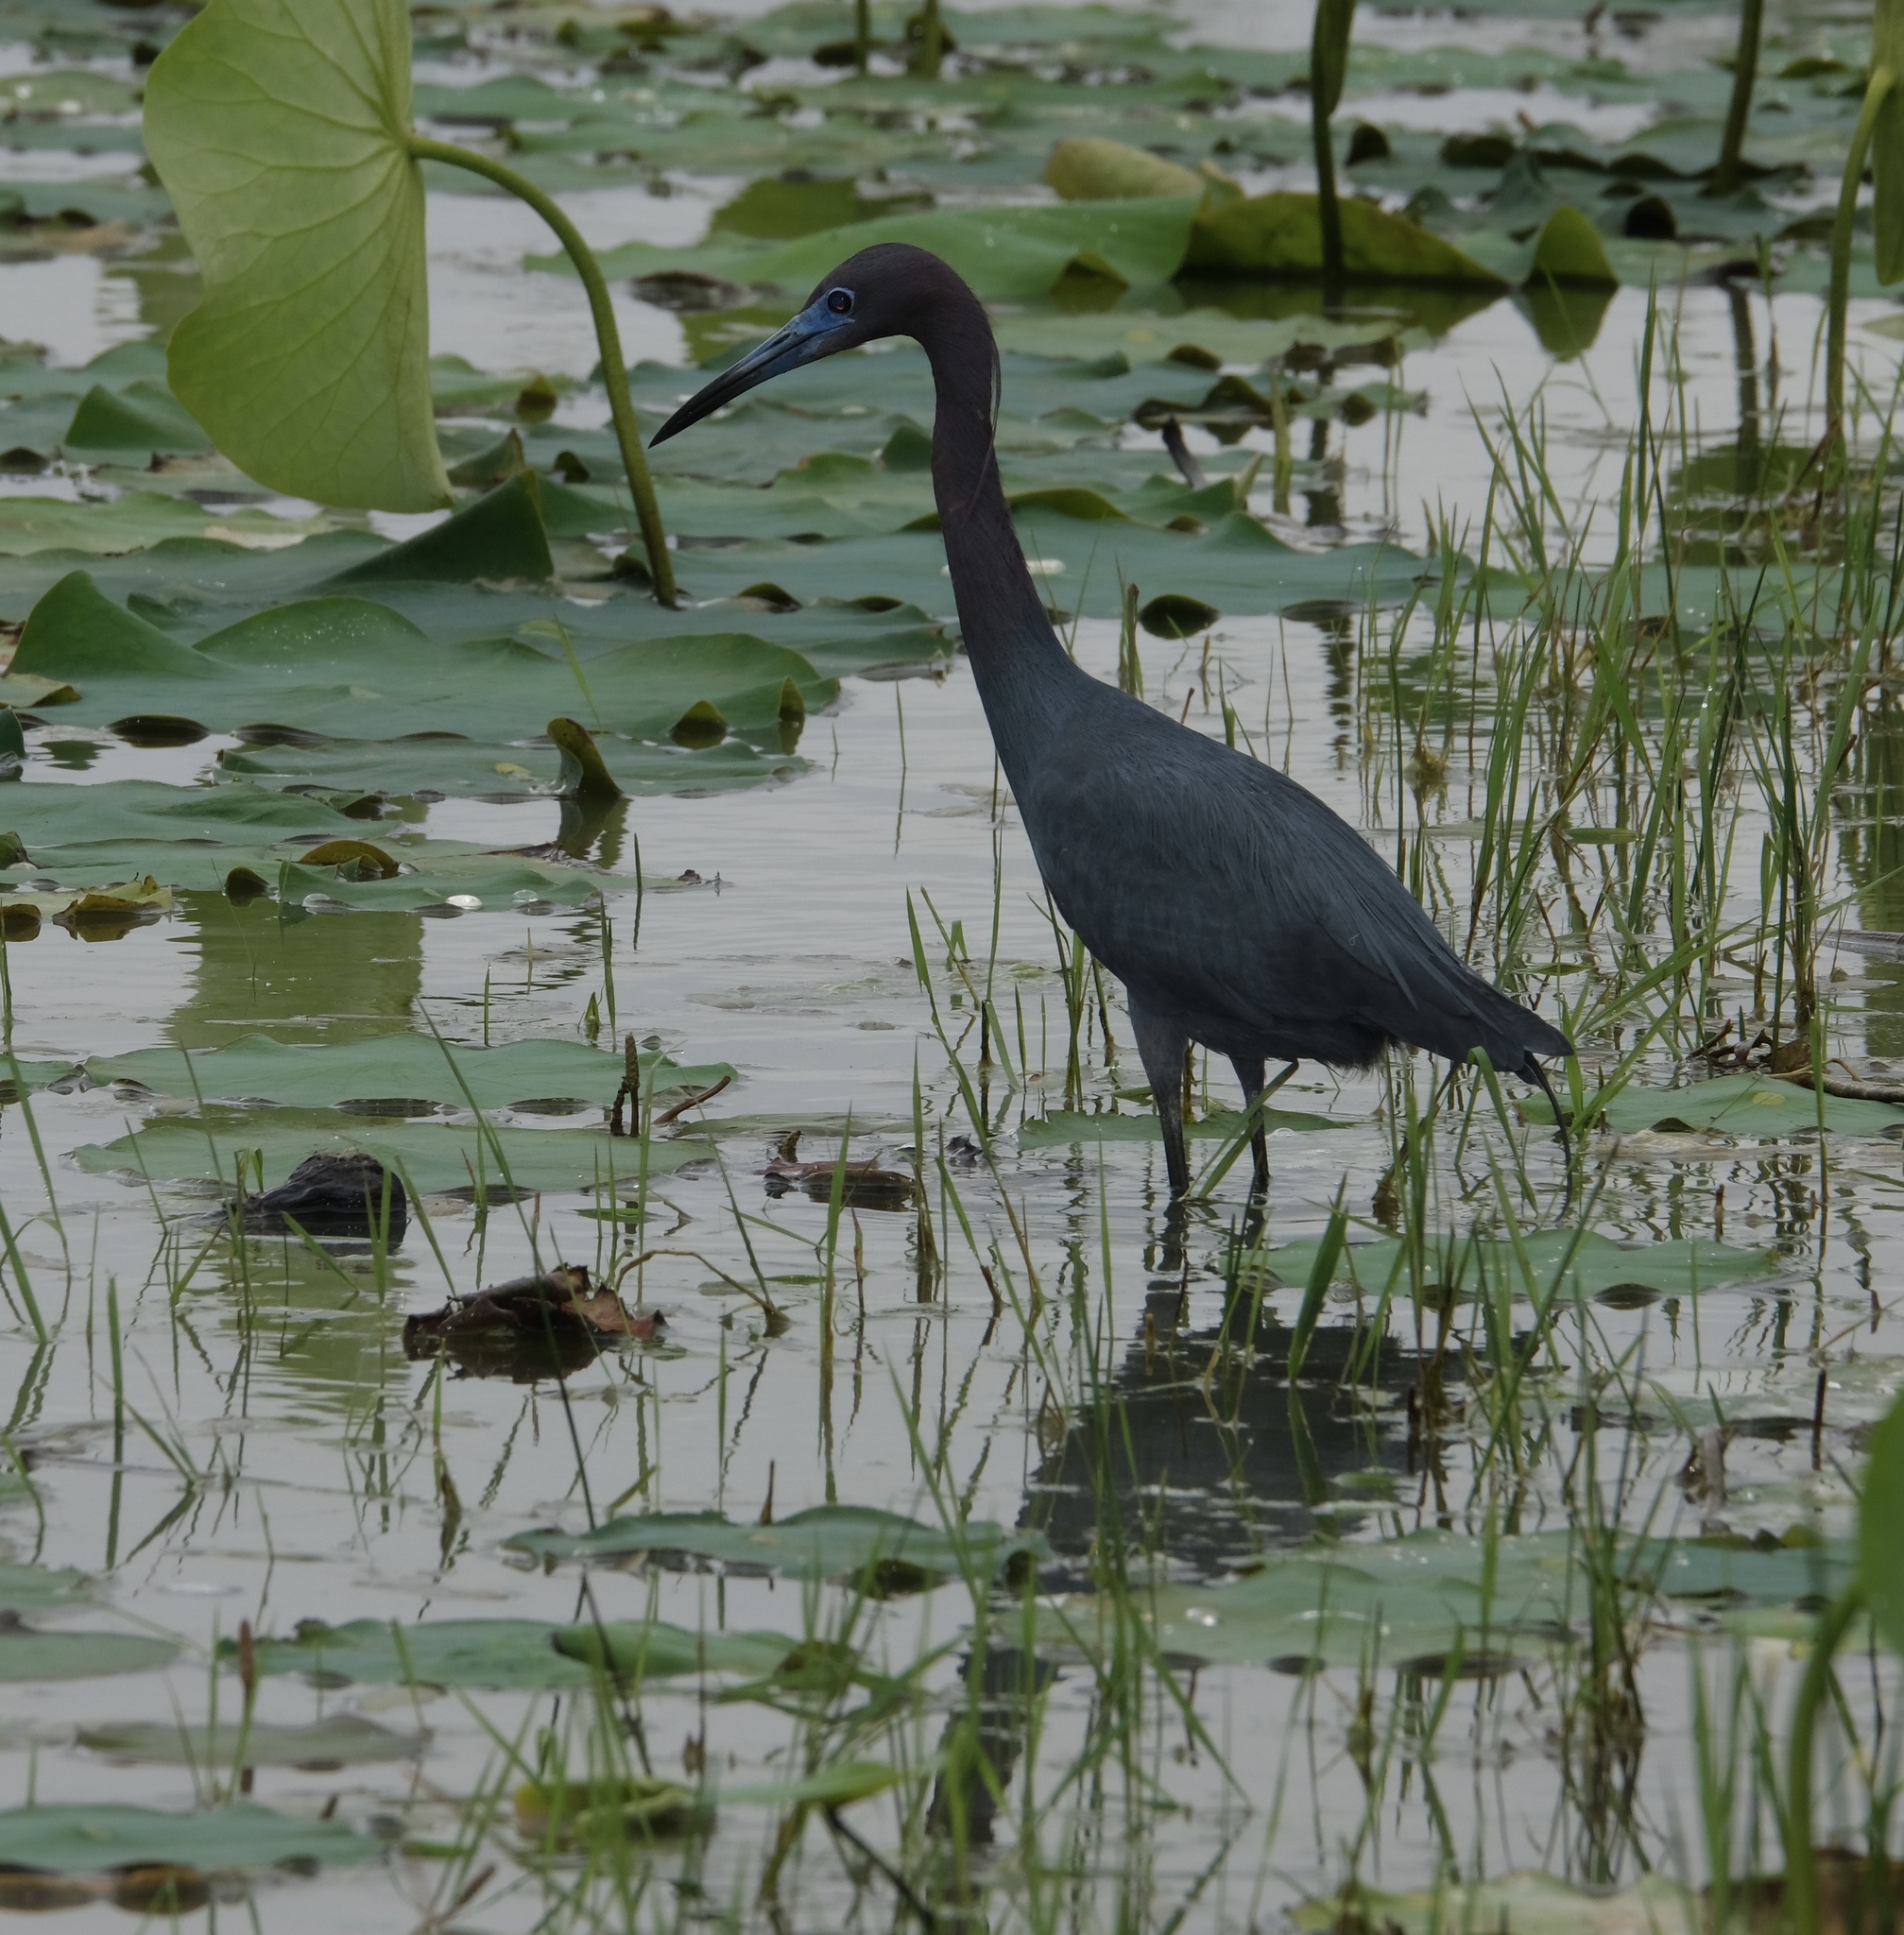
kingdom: Animalia
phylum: Chordata
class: Aves
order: Pelecaniformes
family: Ardeidae
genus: Egretta
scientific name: Egretta caerulea
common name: Little blue heron
